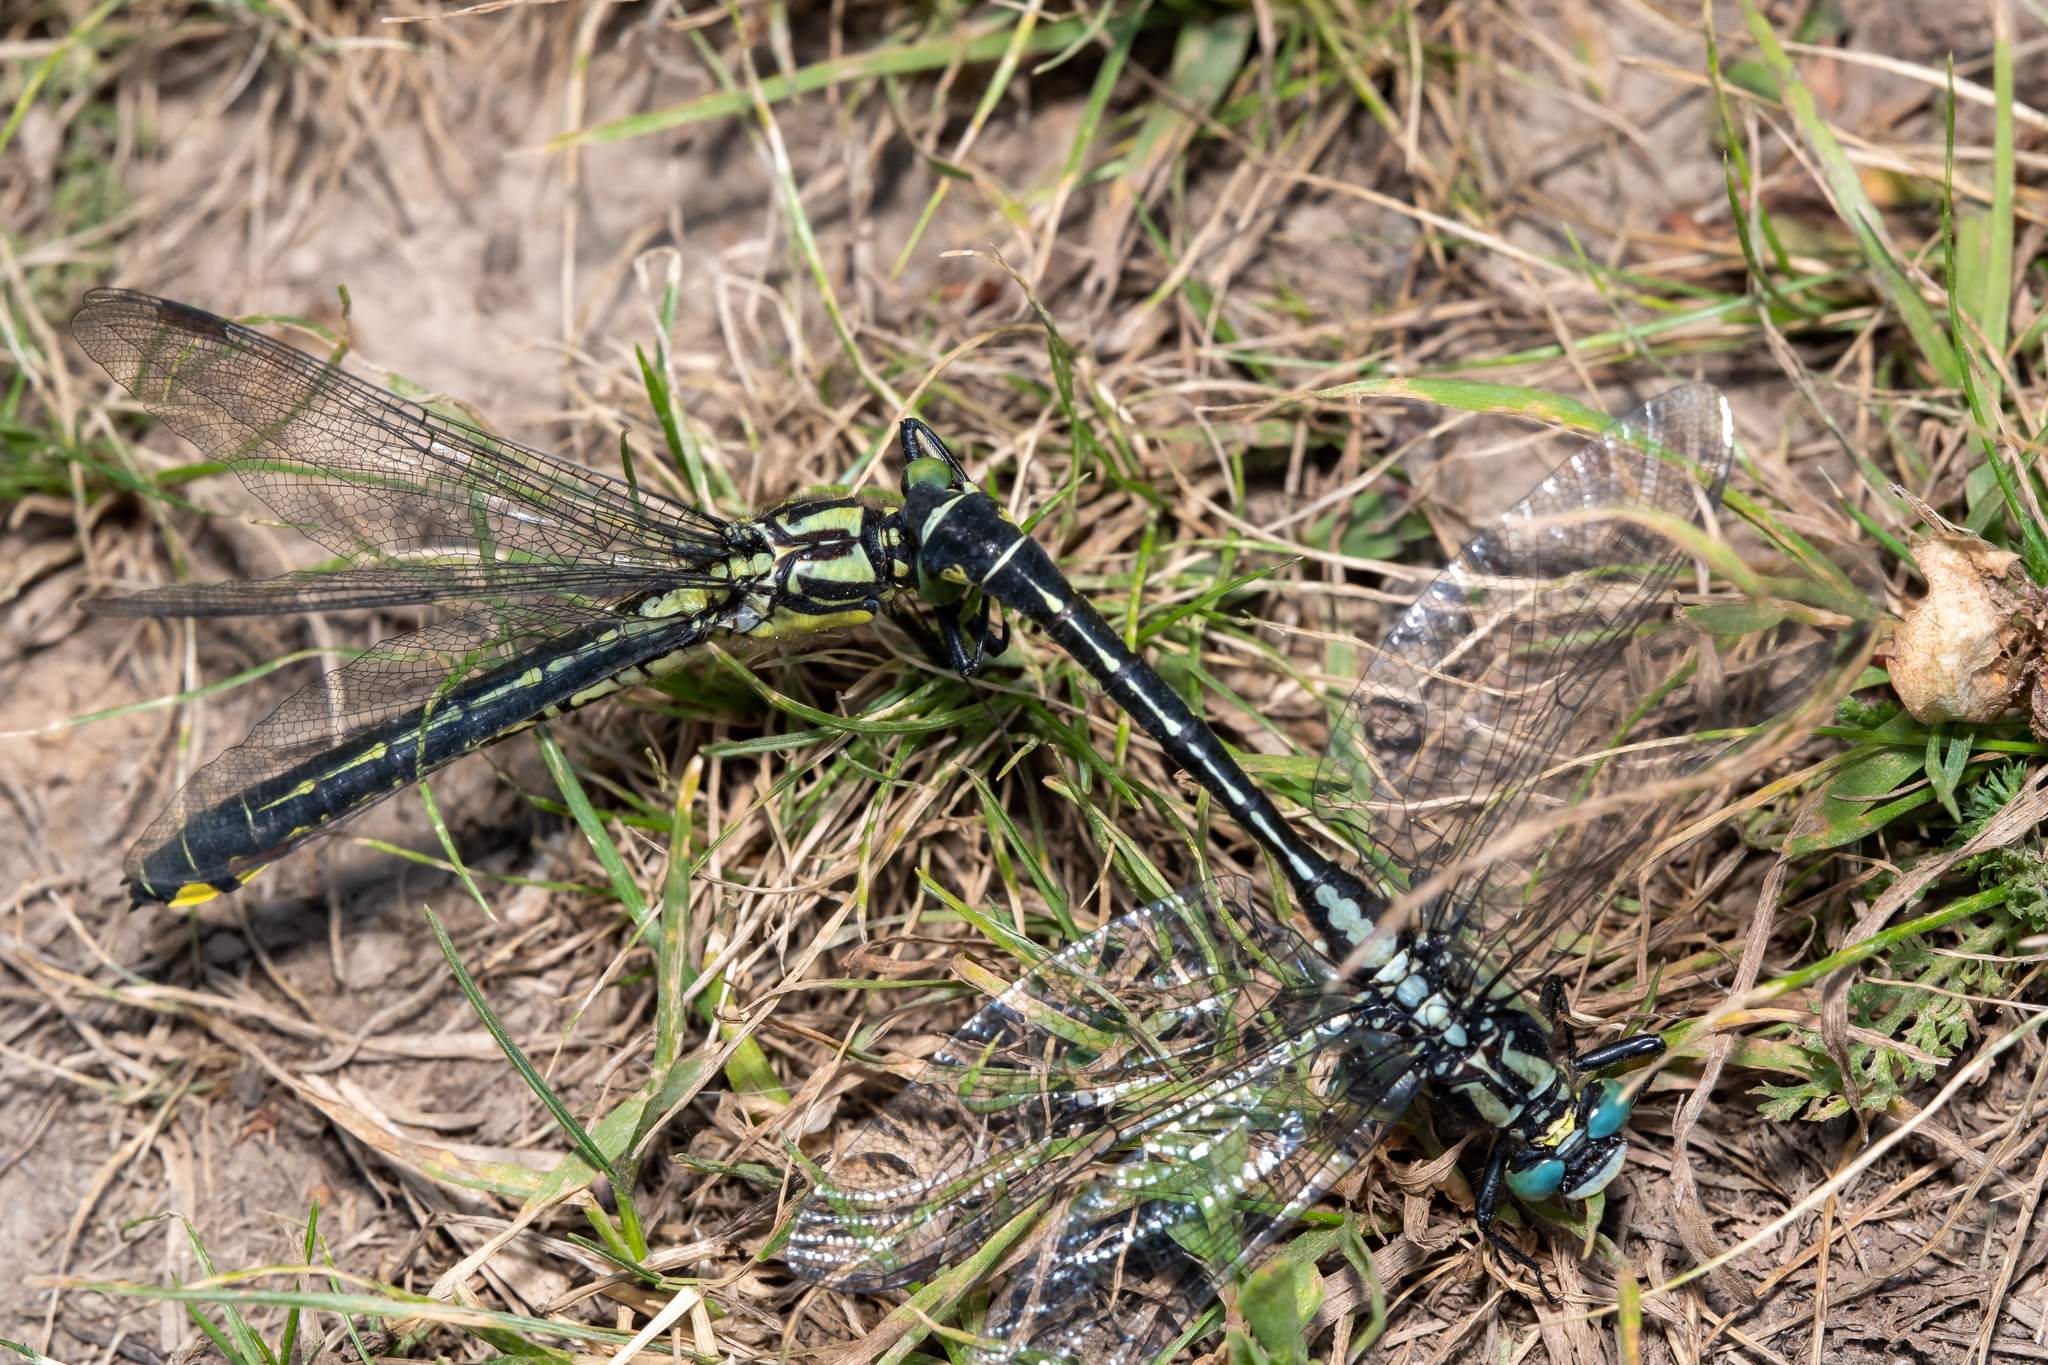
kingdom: Animalia
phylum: Arthropoda
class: Insecta
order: Odonata
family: Gomphidae
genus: Gomphus
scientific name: Gomphus vulgatissimus
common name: Club-tailed dragonfly
